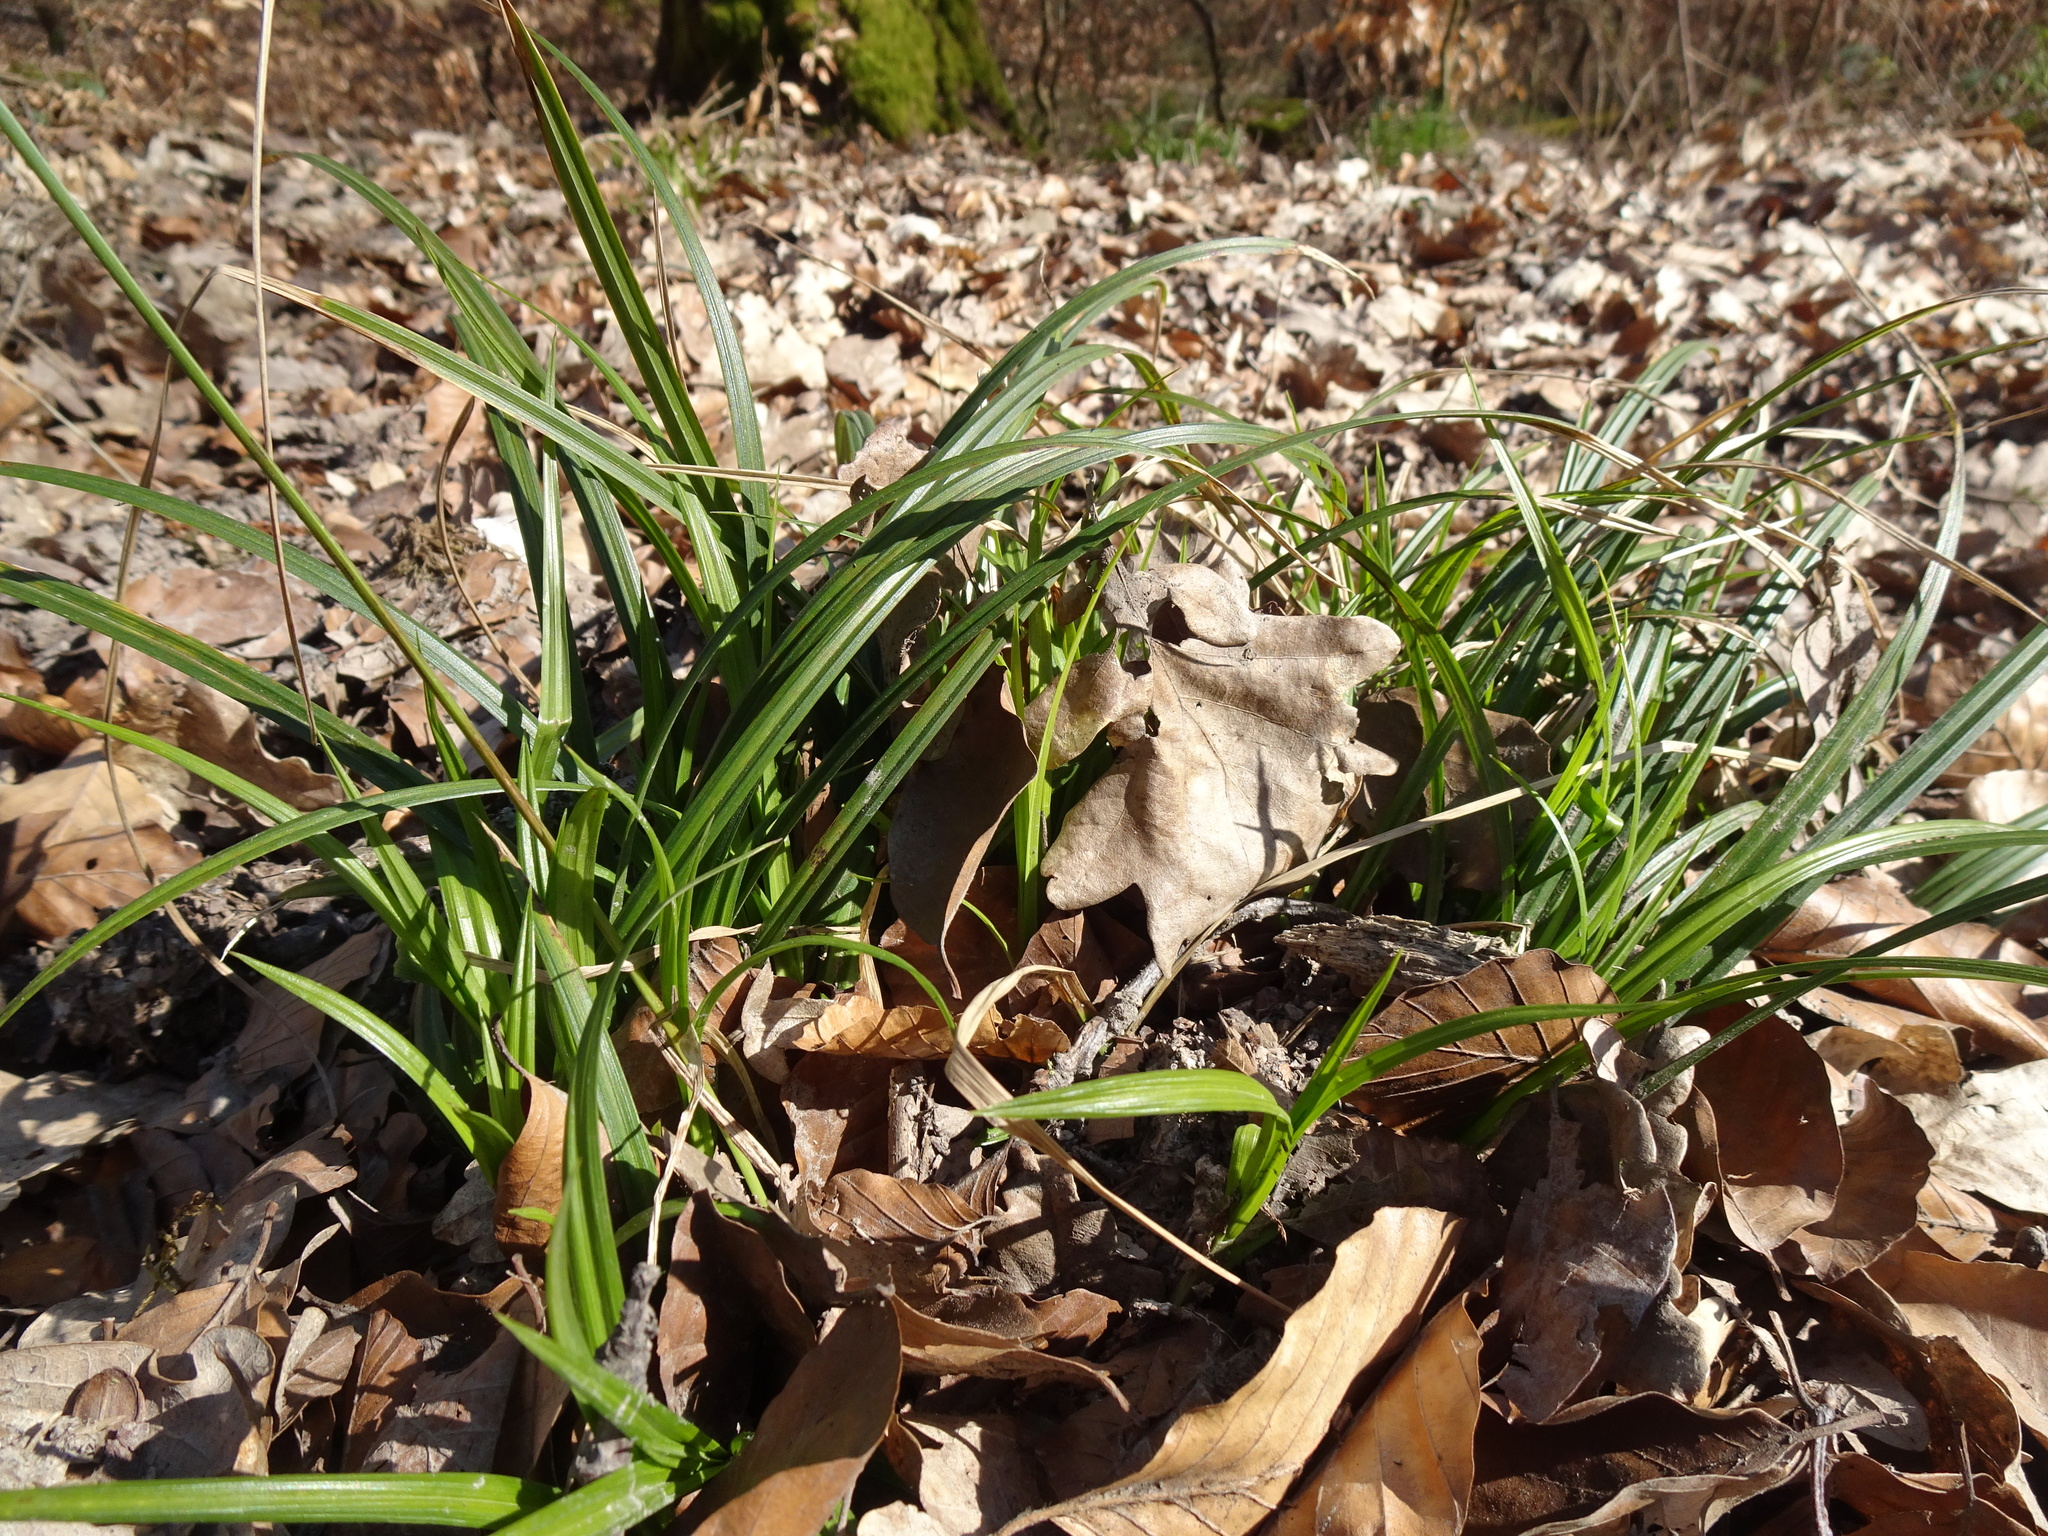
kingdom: Plantae
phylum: Tracheophyta
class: Liliopsida
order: Poales
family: Cyperaceae
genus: Carex
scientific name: Carex sylvatica
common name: Wood-sedge
